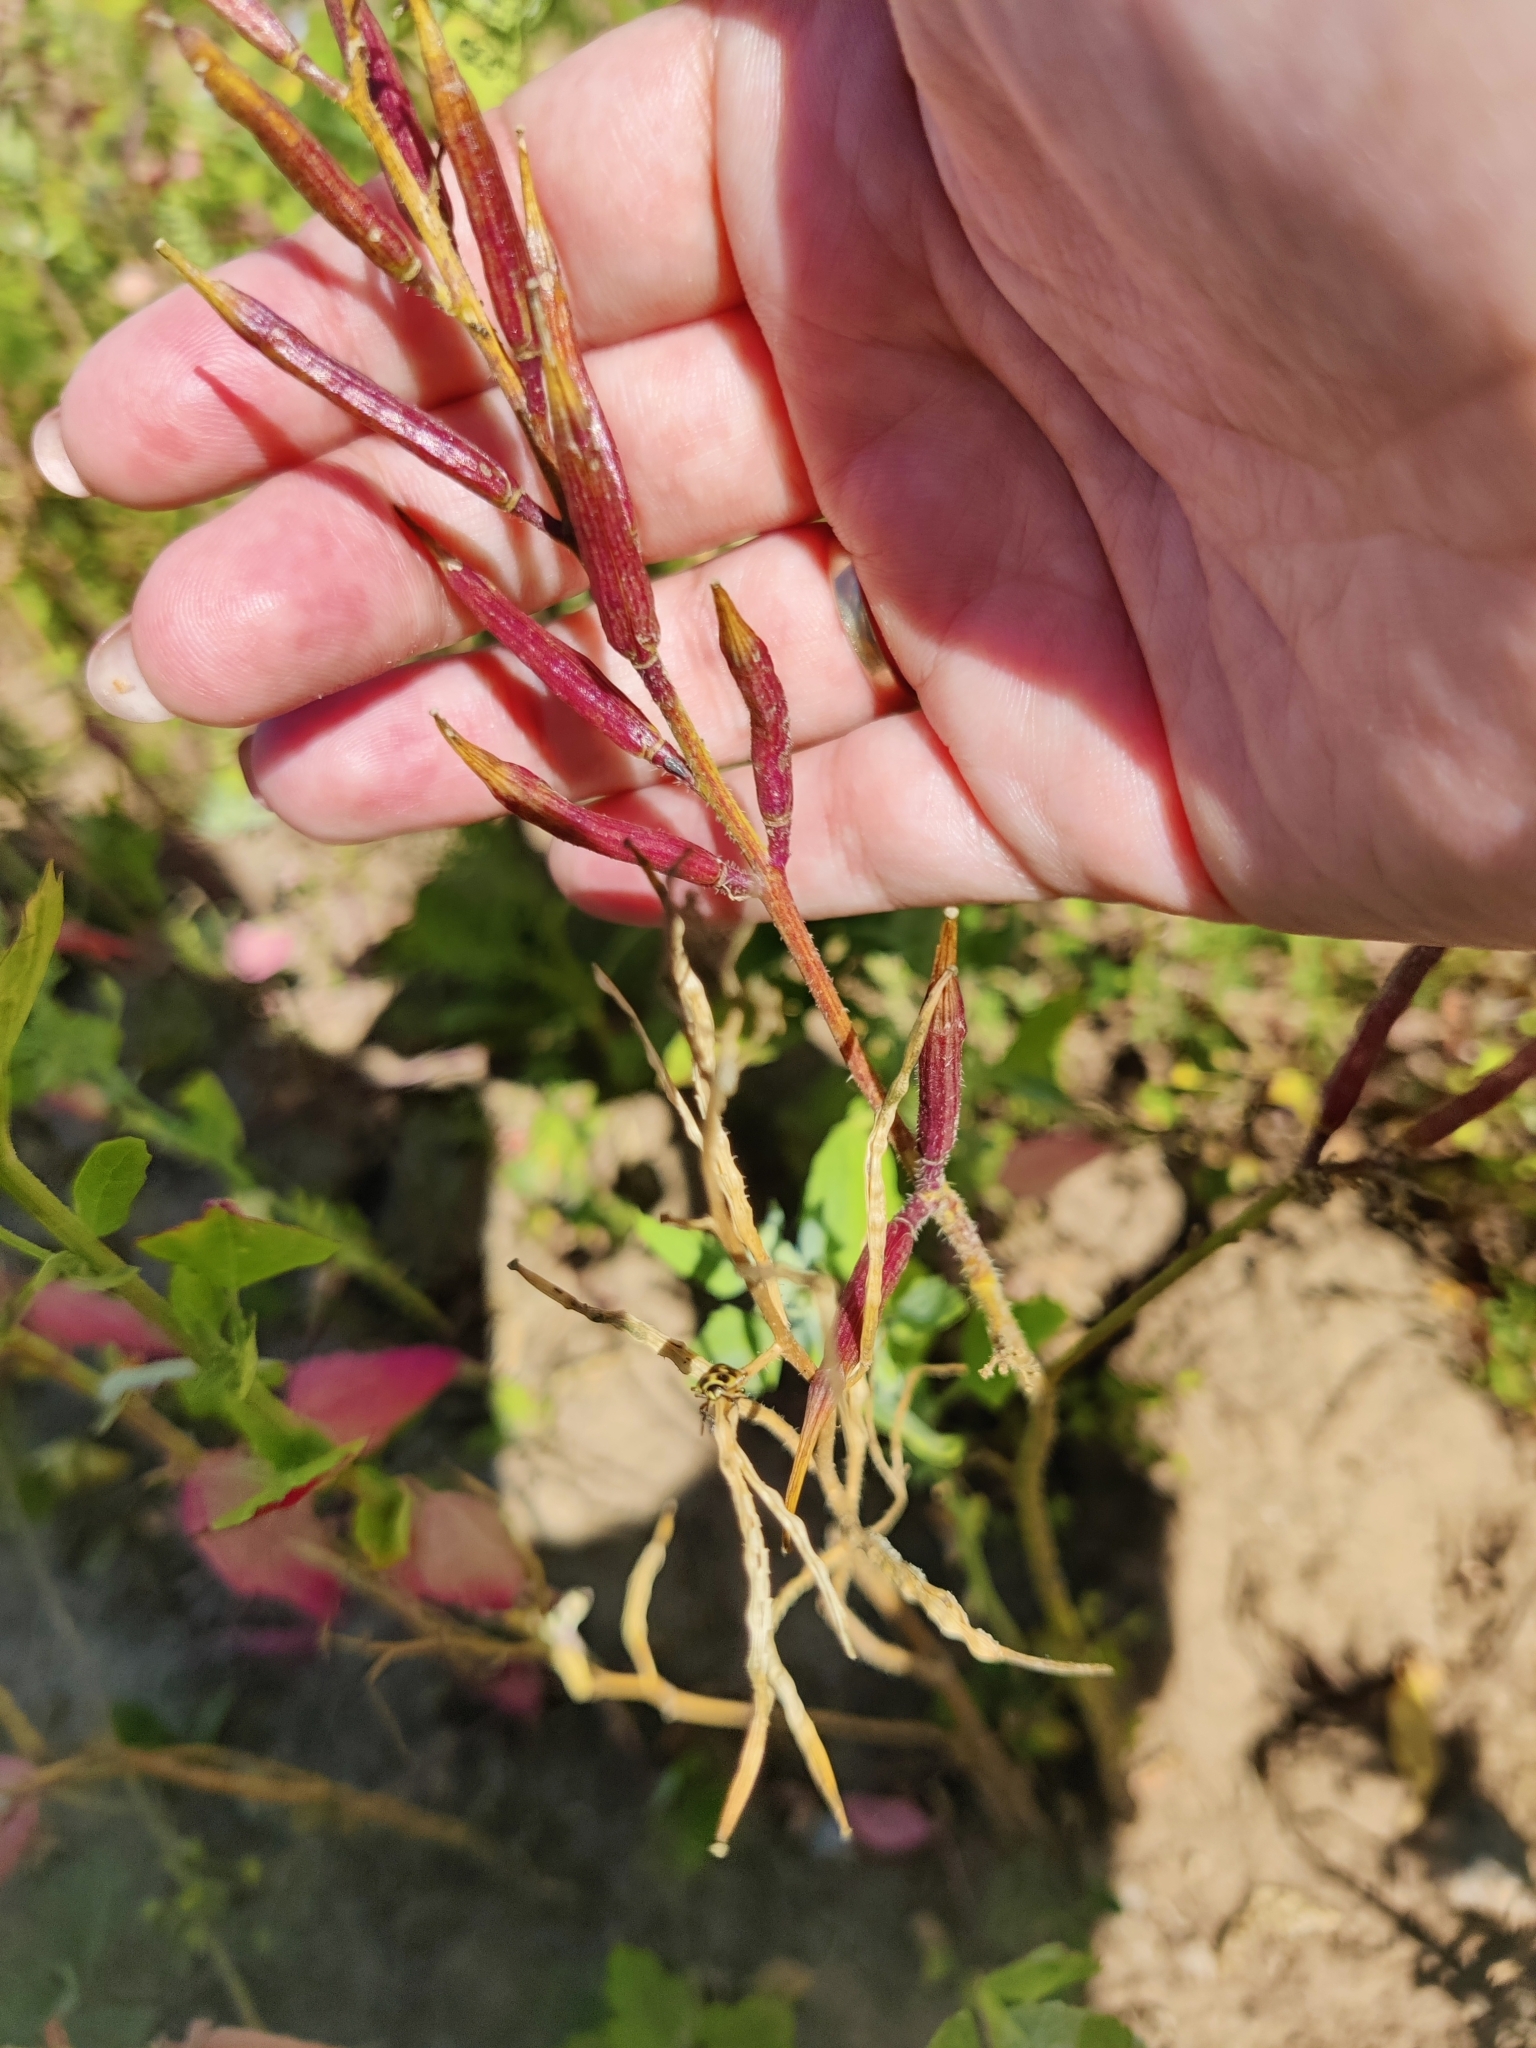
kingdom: Plantae
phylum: Tracheophyta
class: Magnoliopsida
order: Brassicales
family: Brassicaceae
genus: Sinapis
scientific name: Sinapis arvensis
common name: Charlock
